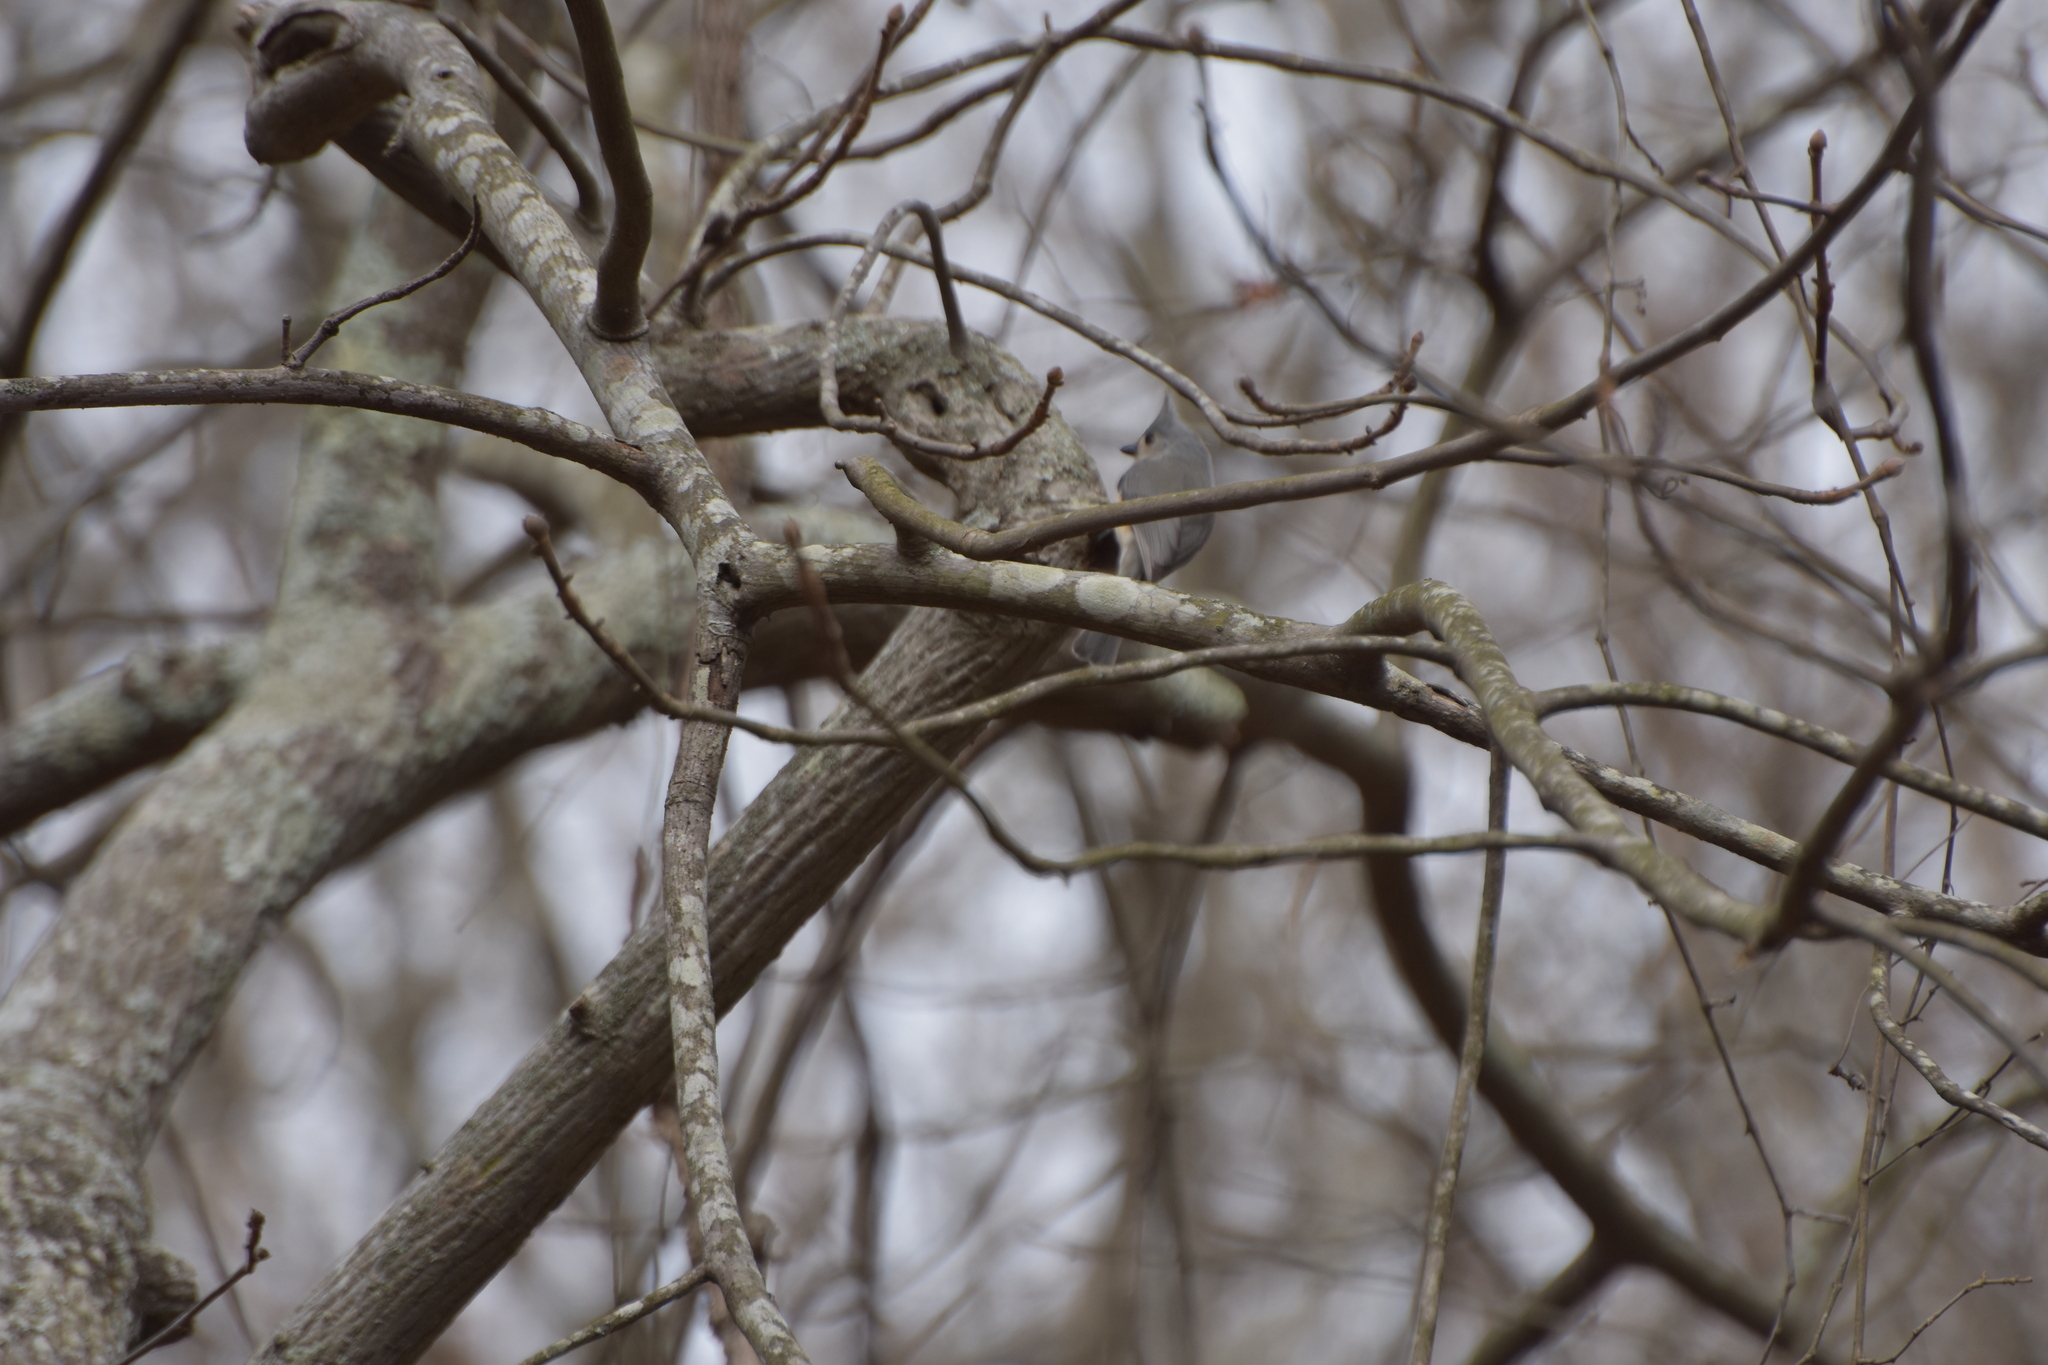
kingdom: Animalia
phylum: Chordata
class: Aves
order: Passeriformes
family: Paridae
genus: Baeolophus
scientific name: Baeolophus bicolor
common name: Tufted titmouse
